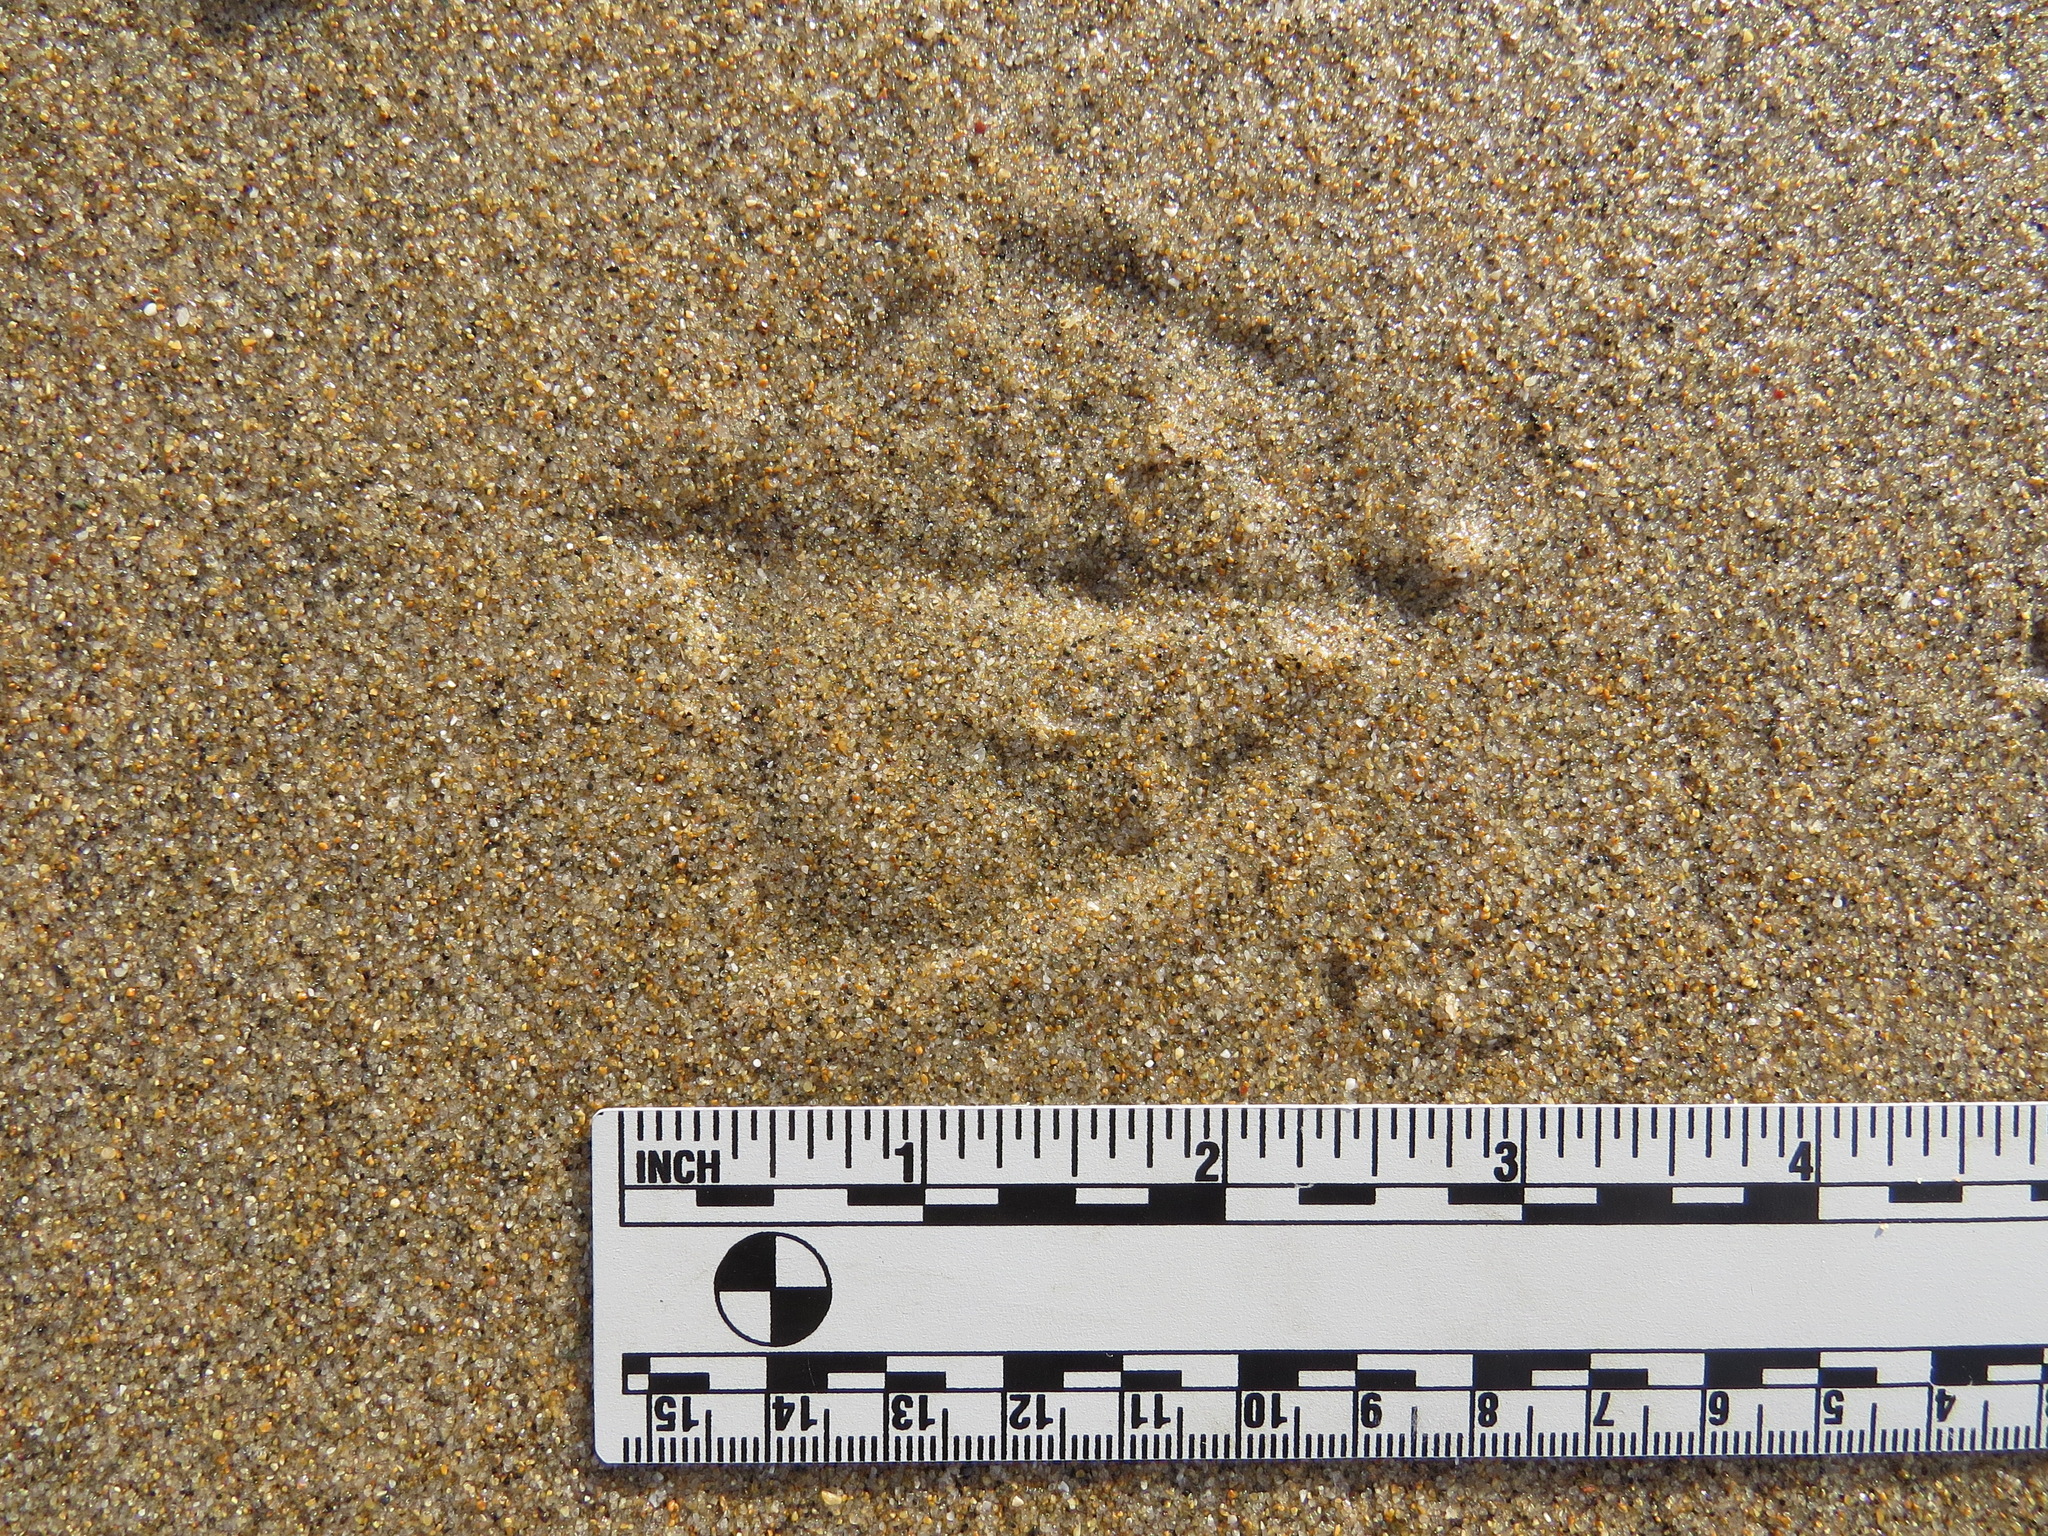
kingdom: Animalia
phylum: Chordata
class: Aves
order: Anseriformes
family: Anatidae
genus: Anas
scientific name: Anas platyrhynchos
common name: Mallard
